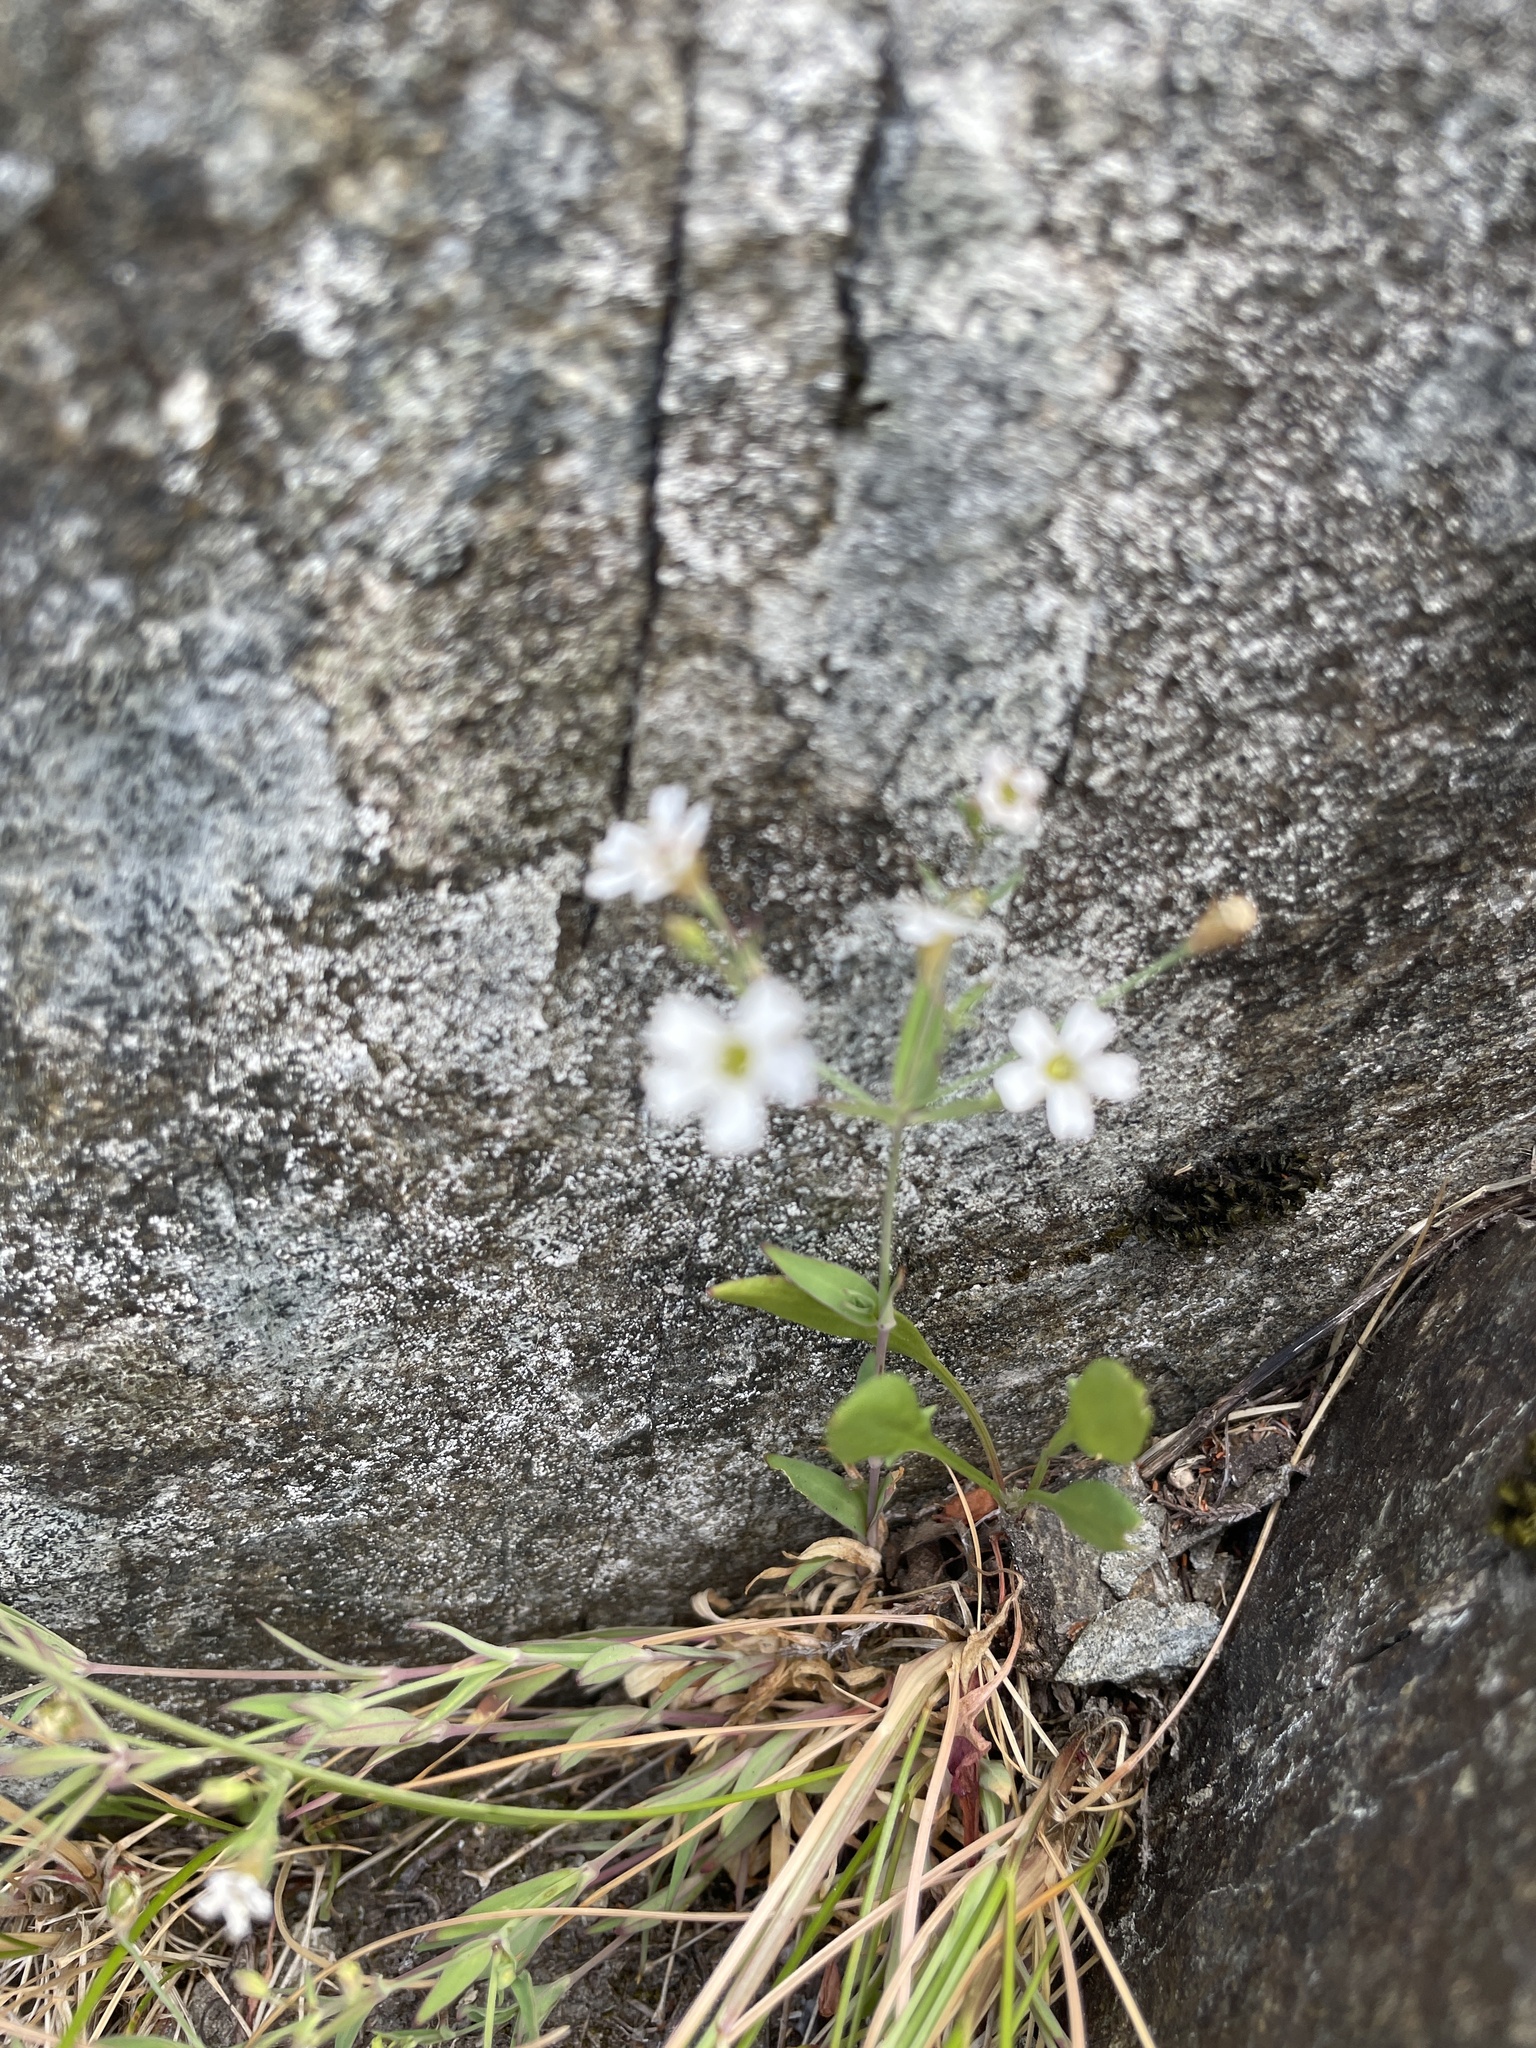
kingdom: Plantae
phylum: Tracheophyta
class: Magnoliopsida
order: Caryophyllales
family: Caryophyllaceae
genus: Atocion
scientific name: Atocion rupestre
